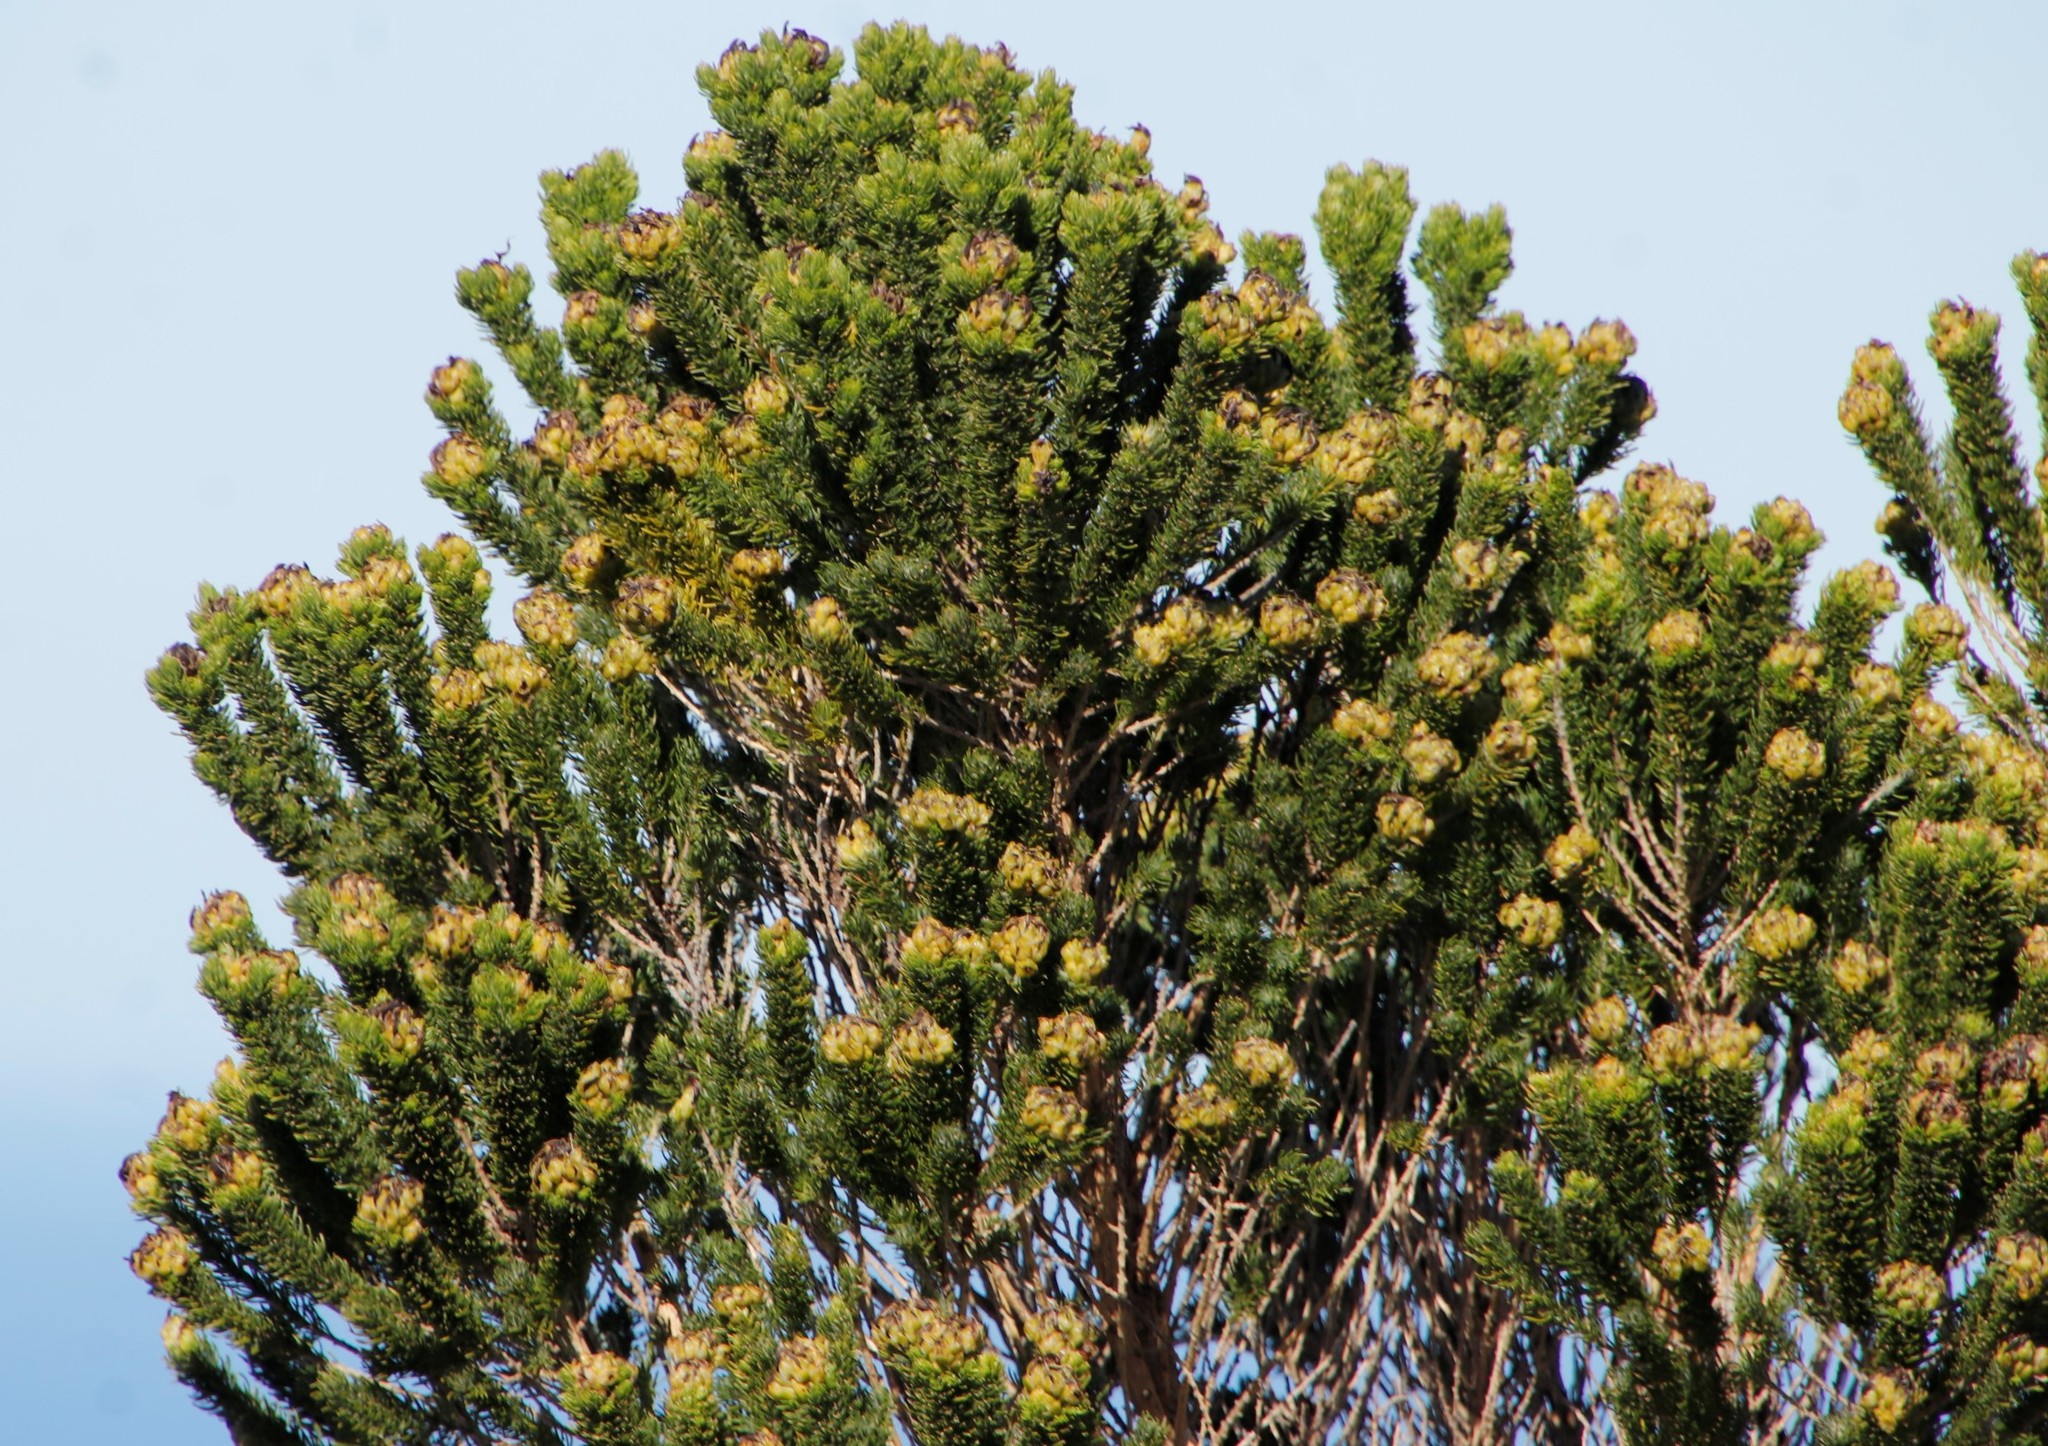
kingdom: Plantae
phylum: Tracheophyta
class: Magnoliopsida
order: Fabales
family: Fabaceae
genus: Aspalathus
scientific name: Aspalathus capitata
